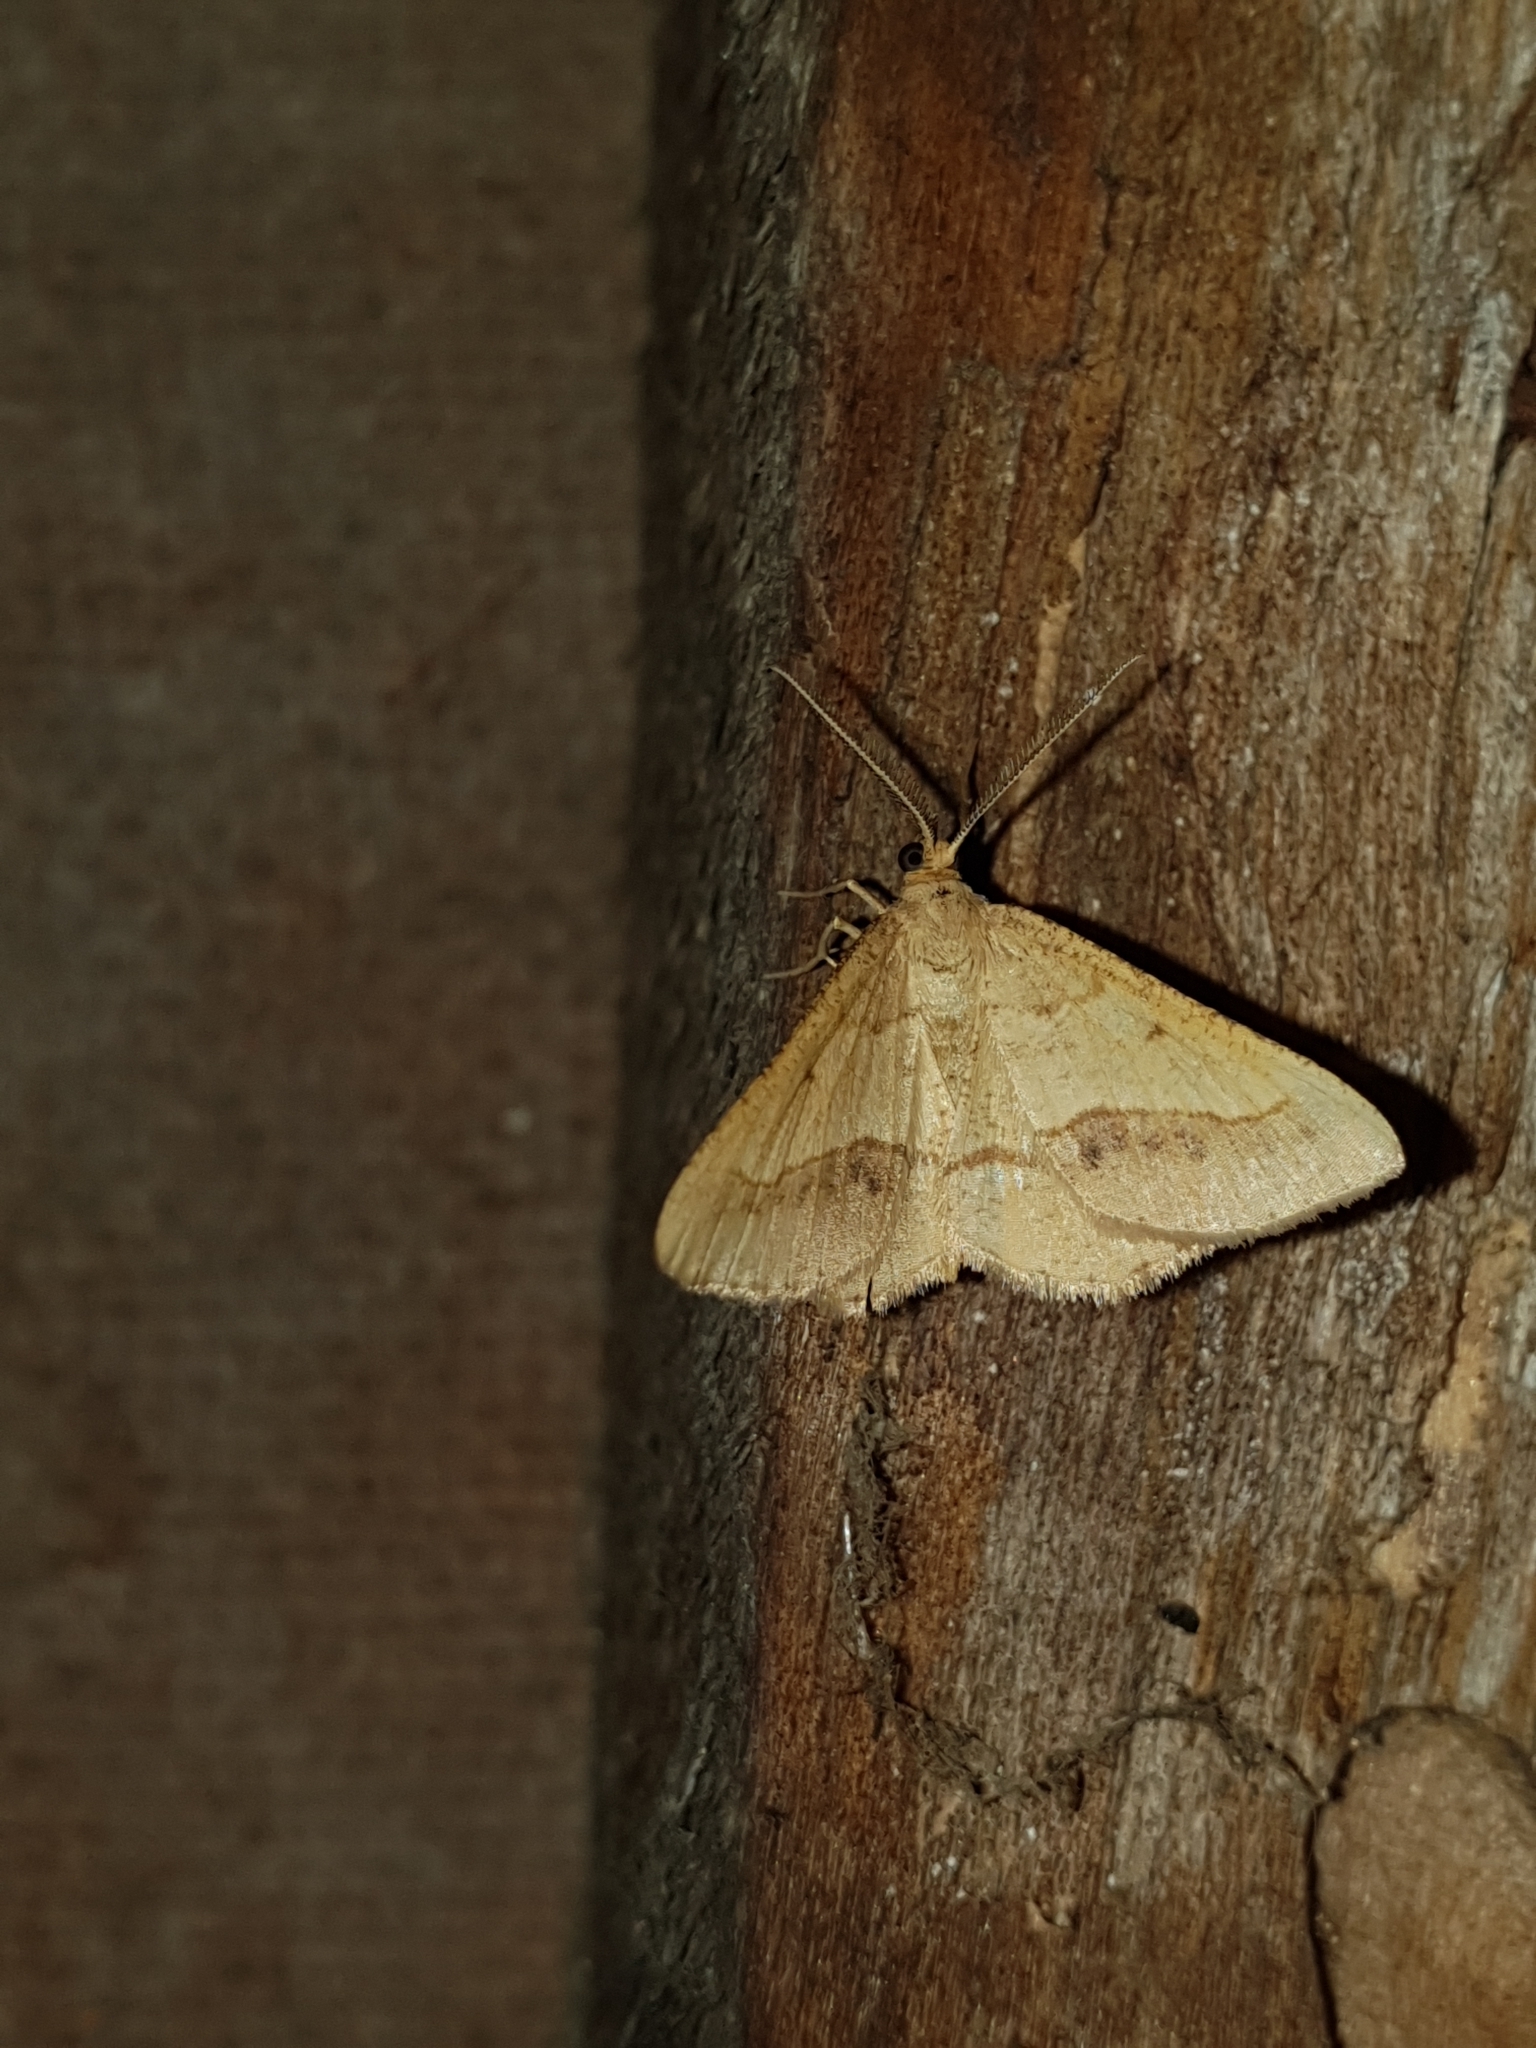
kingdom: Animalia
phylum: Arthropoda
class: Insecta
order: Lepidoptera
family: Geometridae
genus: Tephrina
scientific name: Tephrina arenacearia
